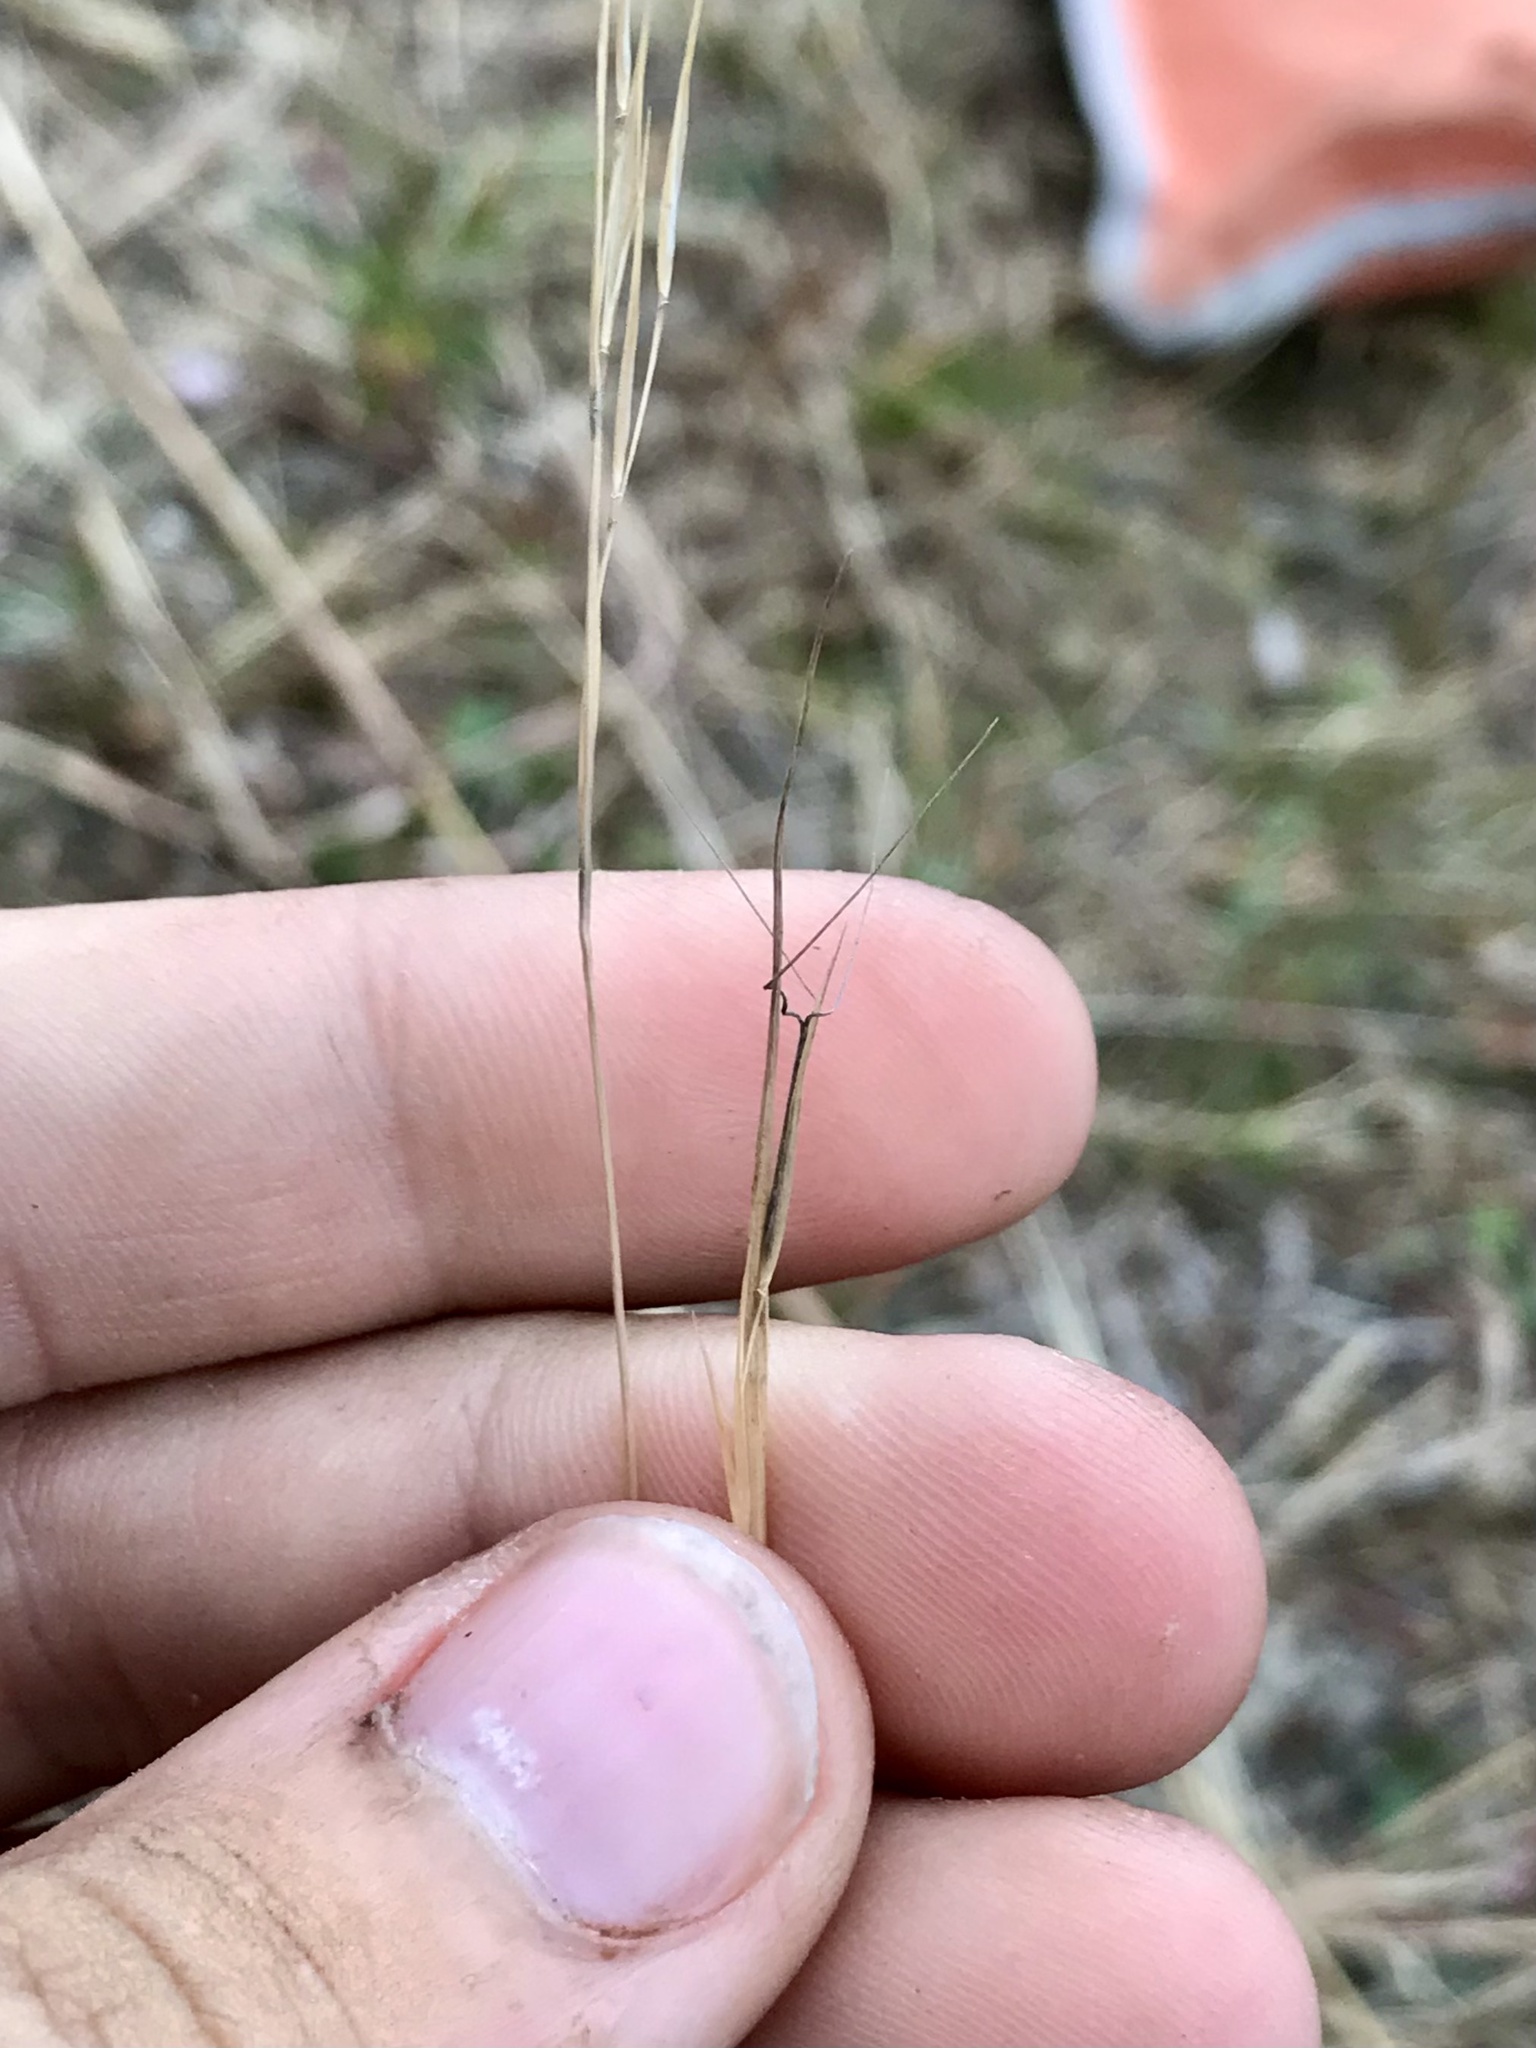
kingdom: Plantae
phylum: Tracheophyta
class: Liliopsida
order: Poales
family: Poaceae
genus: Aristida
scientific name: Aristida basiramea
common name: Forked three-awned grass
